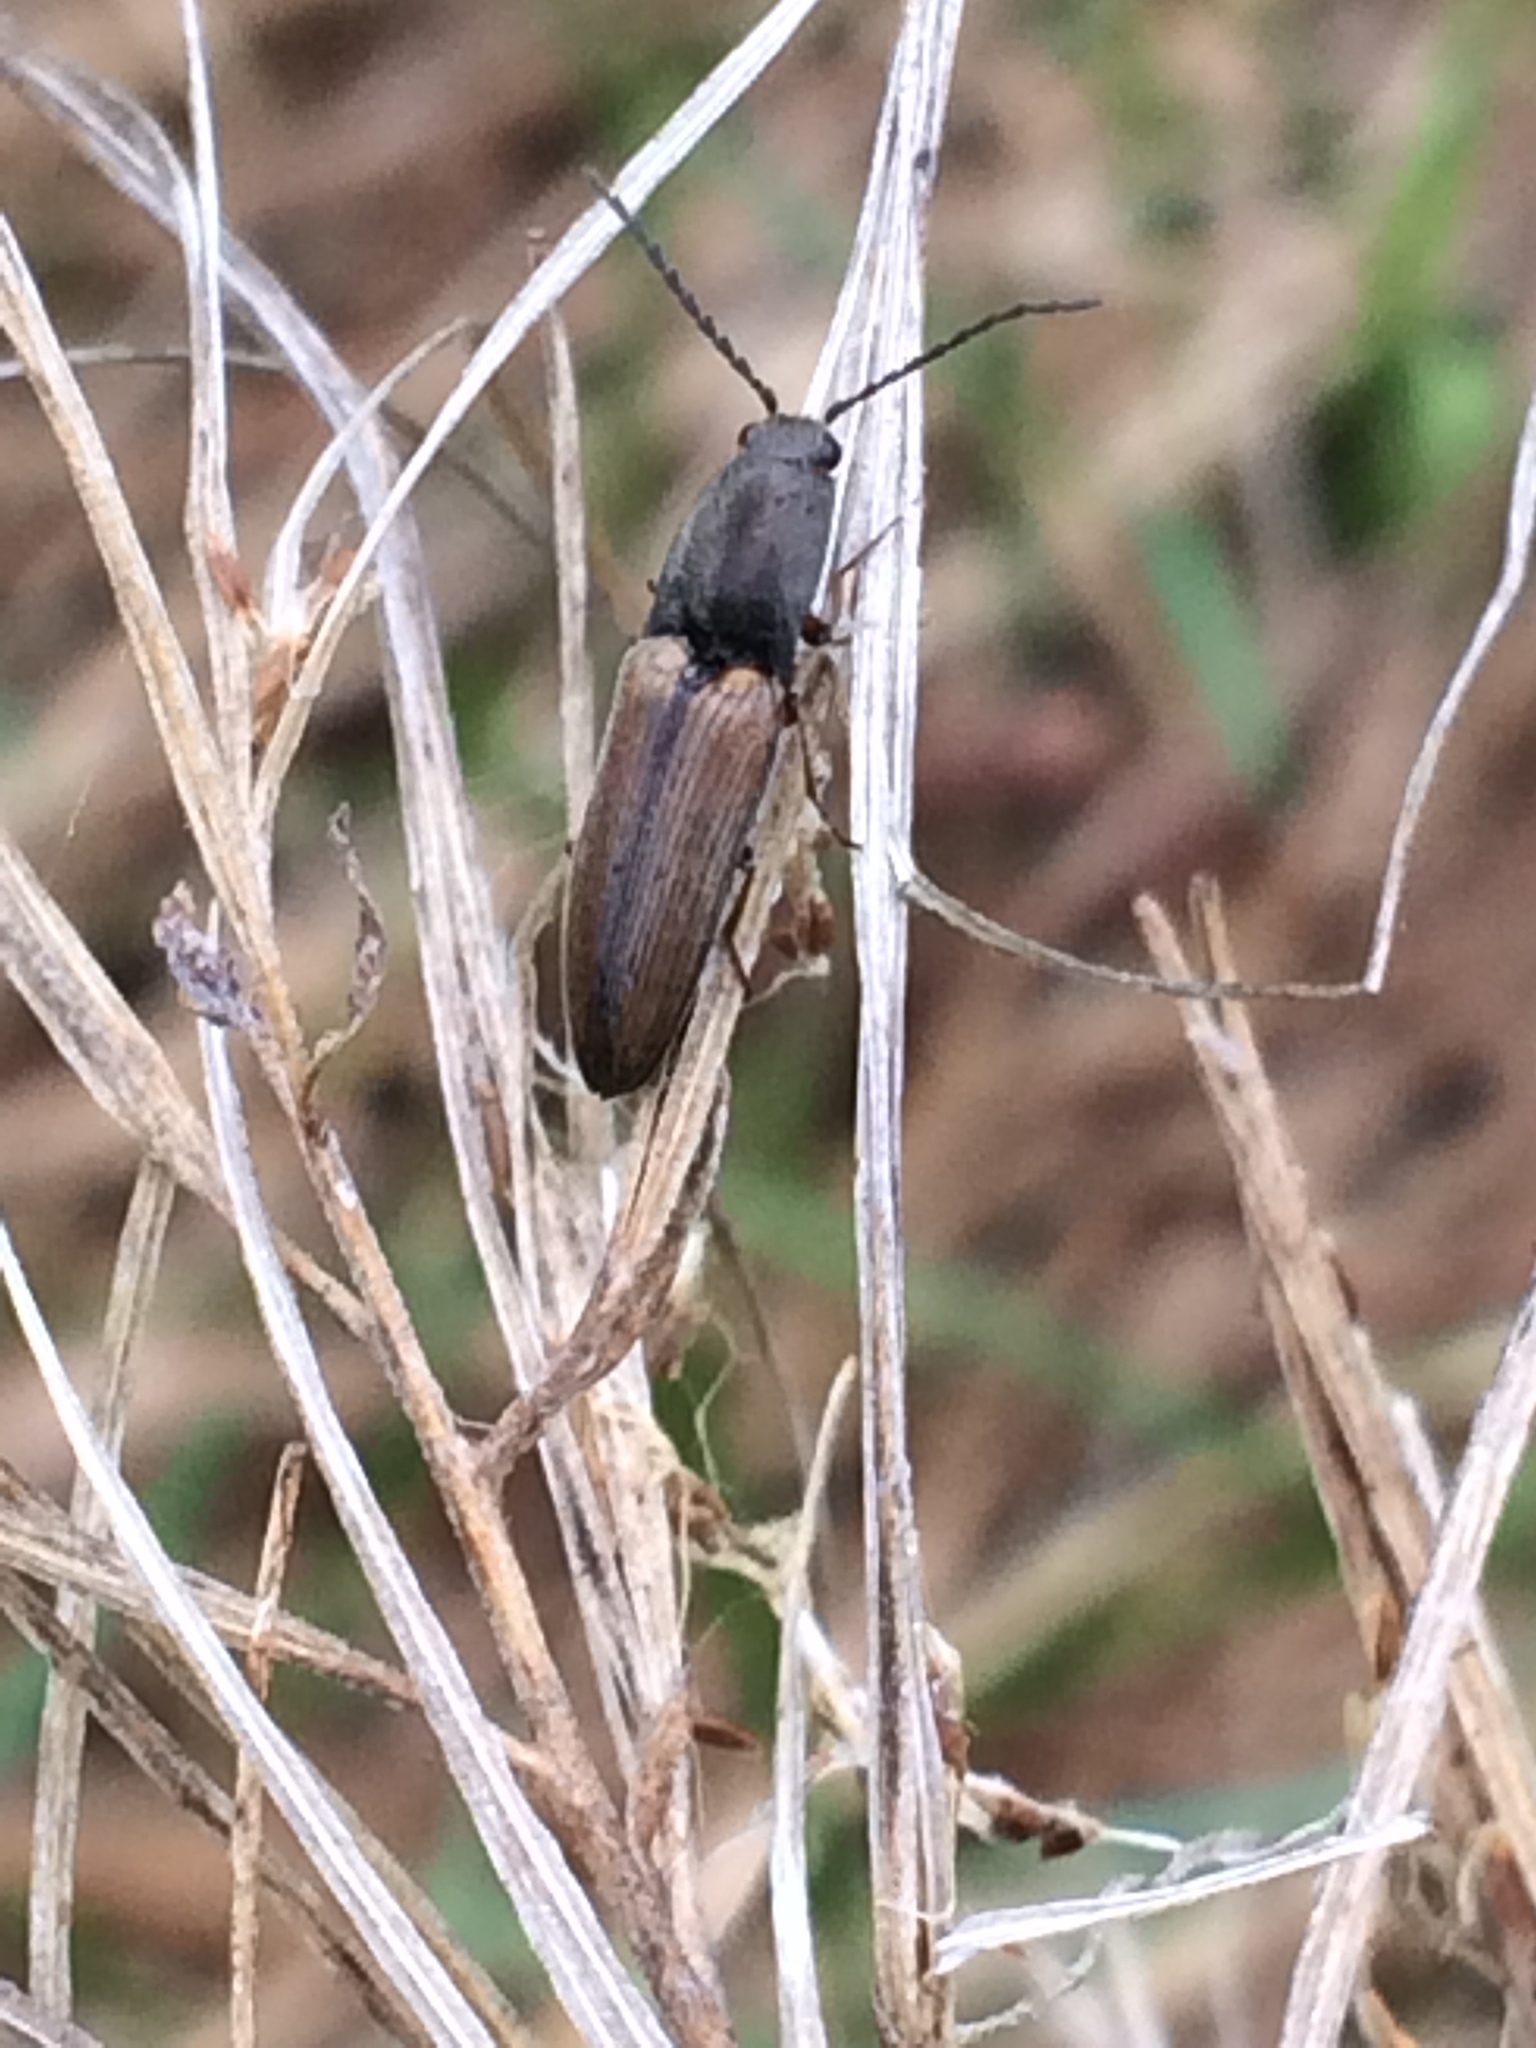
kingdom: Animalia
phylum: Arthropoda
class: Insecta
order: Coleoptera
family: Elateridae
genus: Corymbitodes
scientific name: Corymbitodes tarsalis
